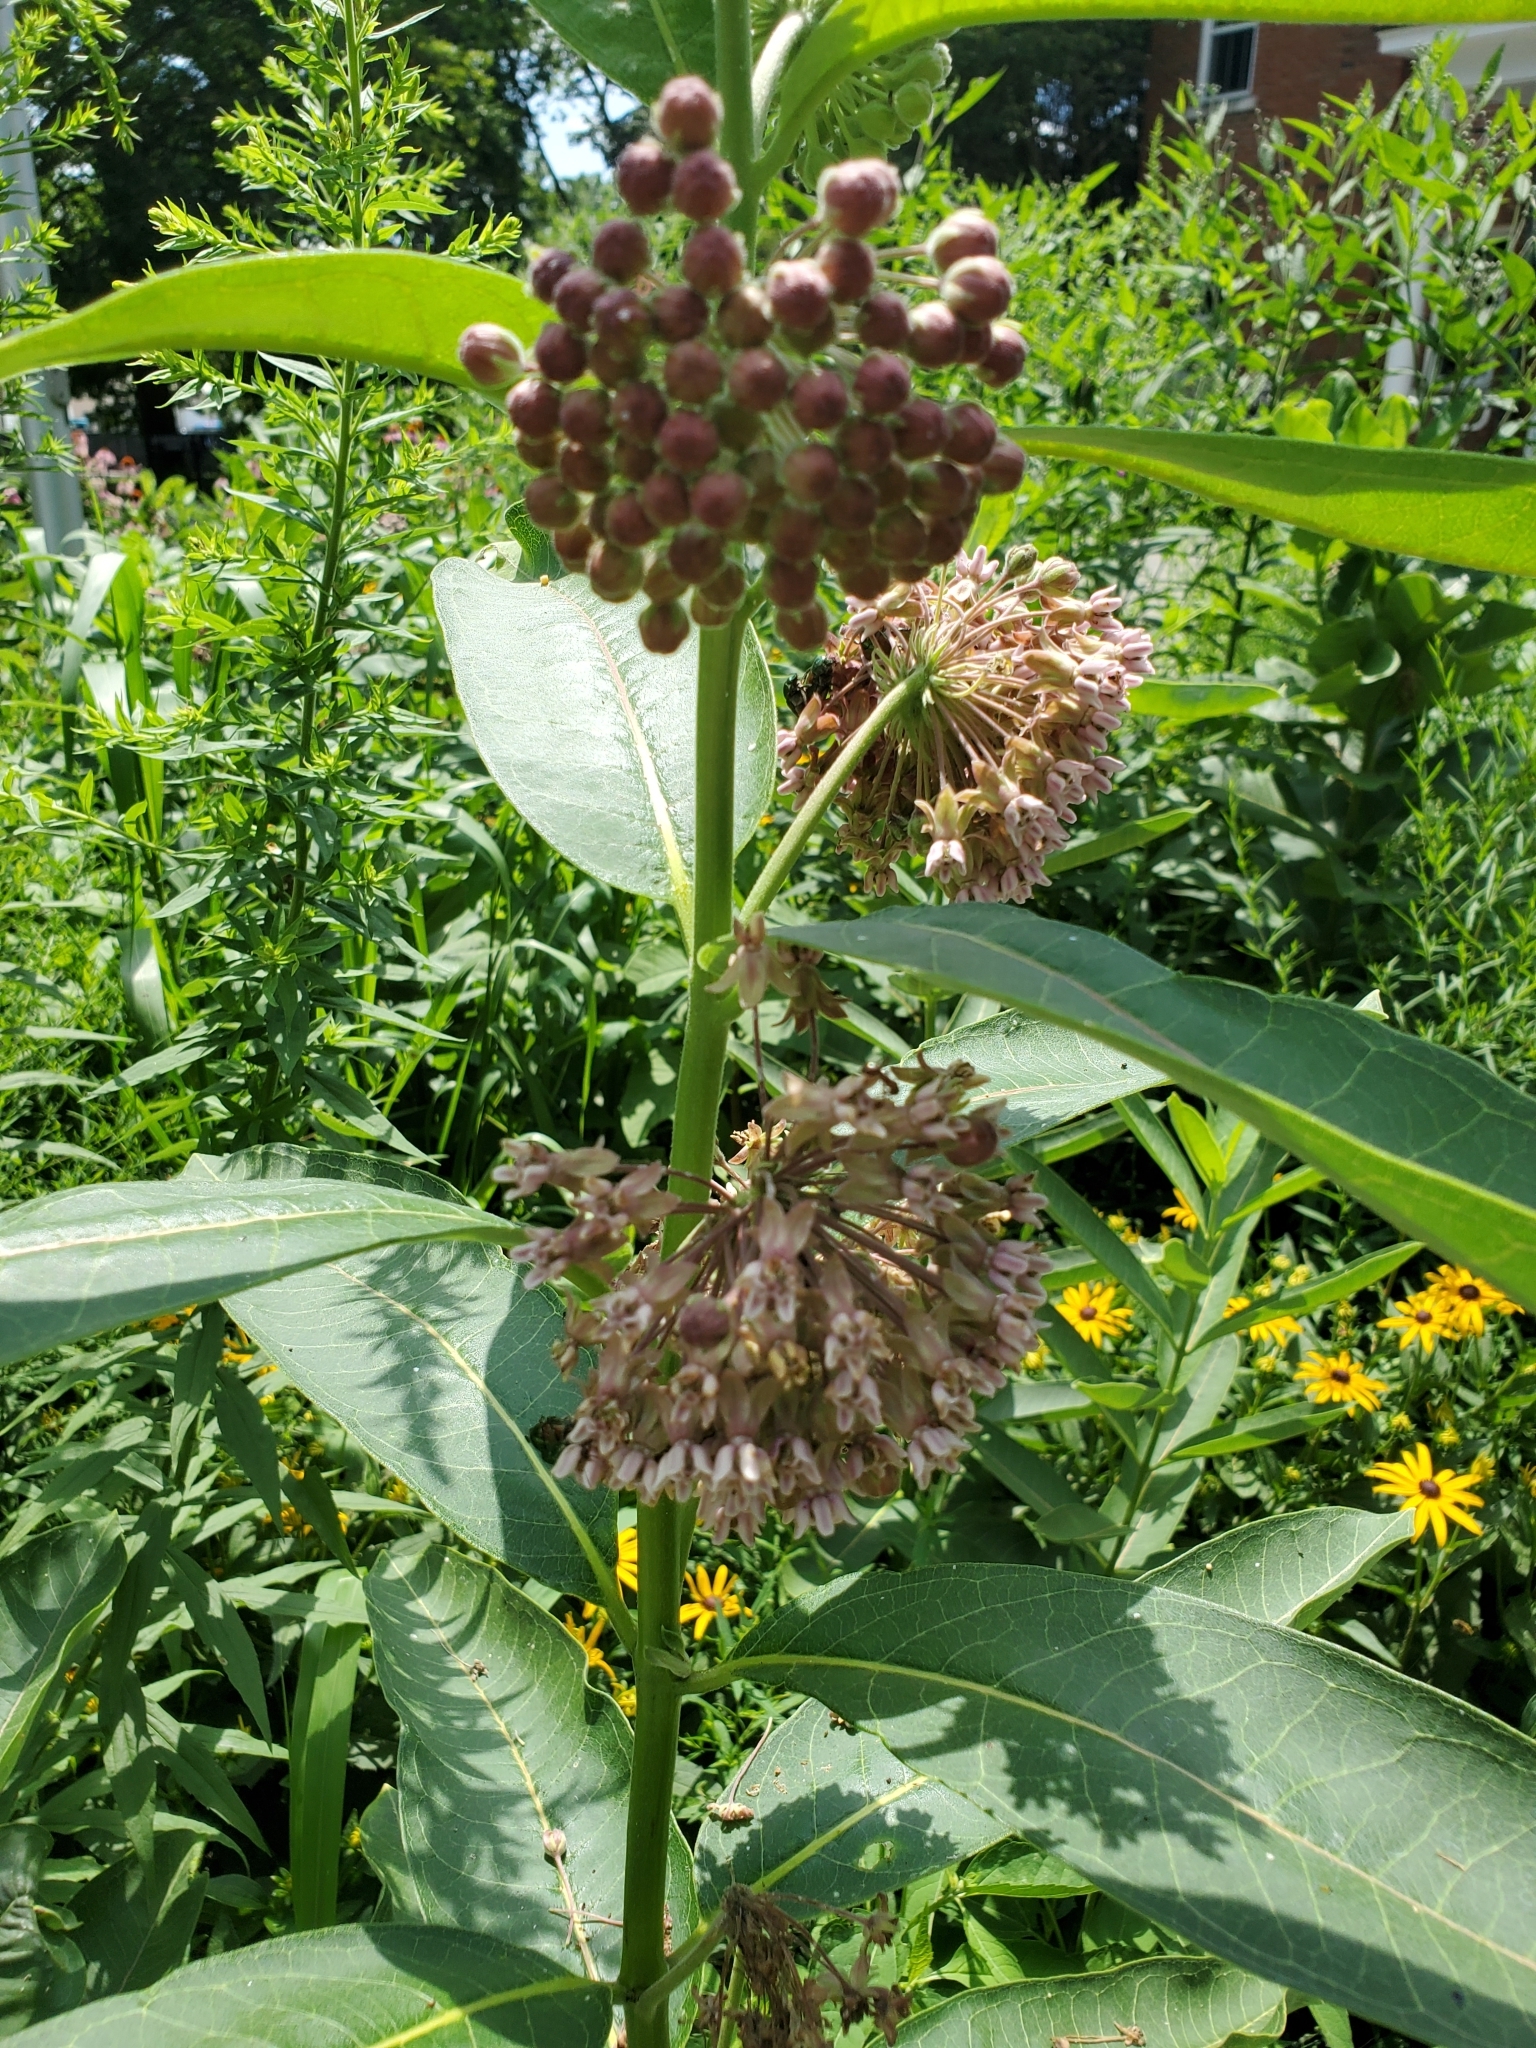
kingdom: Plantae
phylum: Tracheophyta
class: Magnoliopsida
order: Gentianales
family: Apocynaceae
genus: Asclepias
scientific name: Asclepias syriaca
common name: Common milkweed
